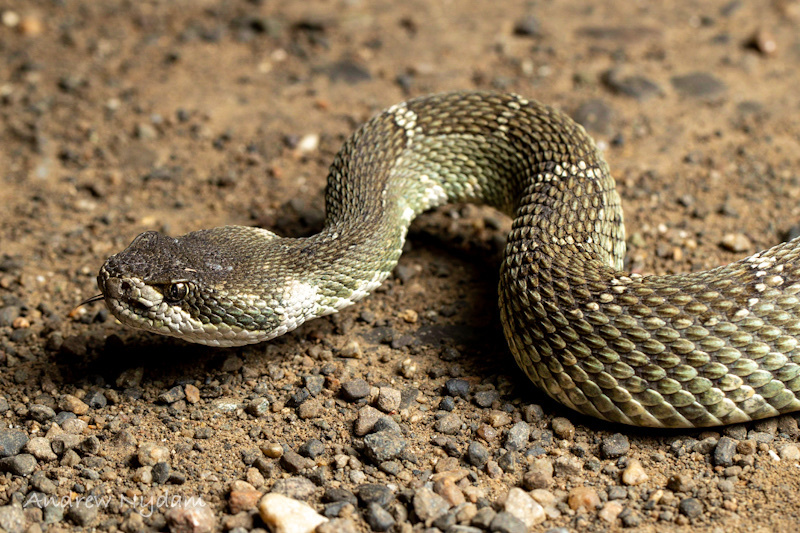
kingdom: Animalia
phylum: Chordata
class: Squamata
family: Viperidae
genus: Crotalus
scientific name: Crotalus oreganus
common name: Abyssus
